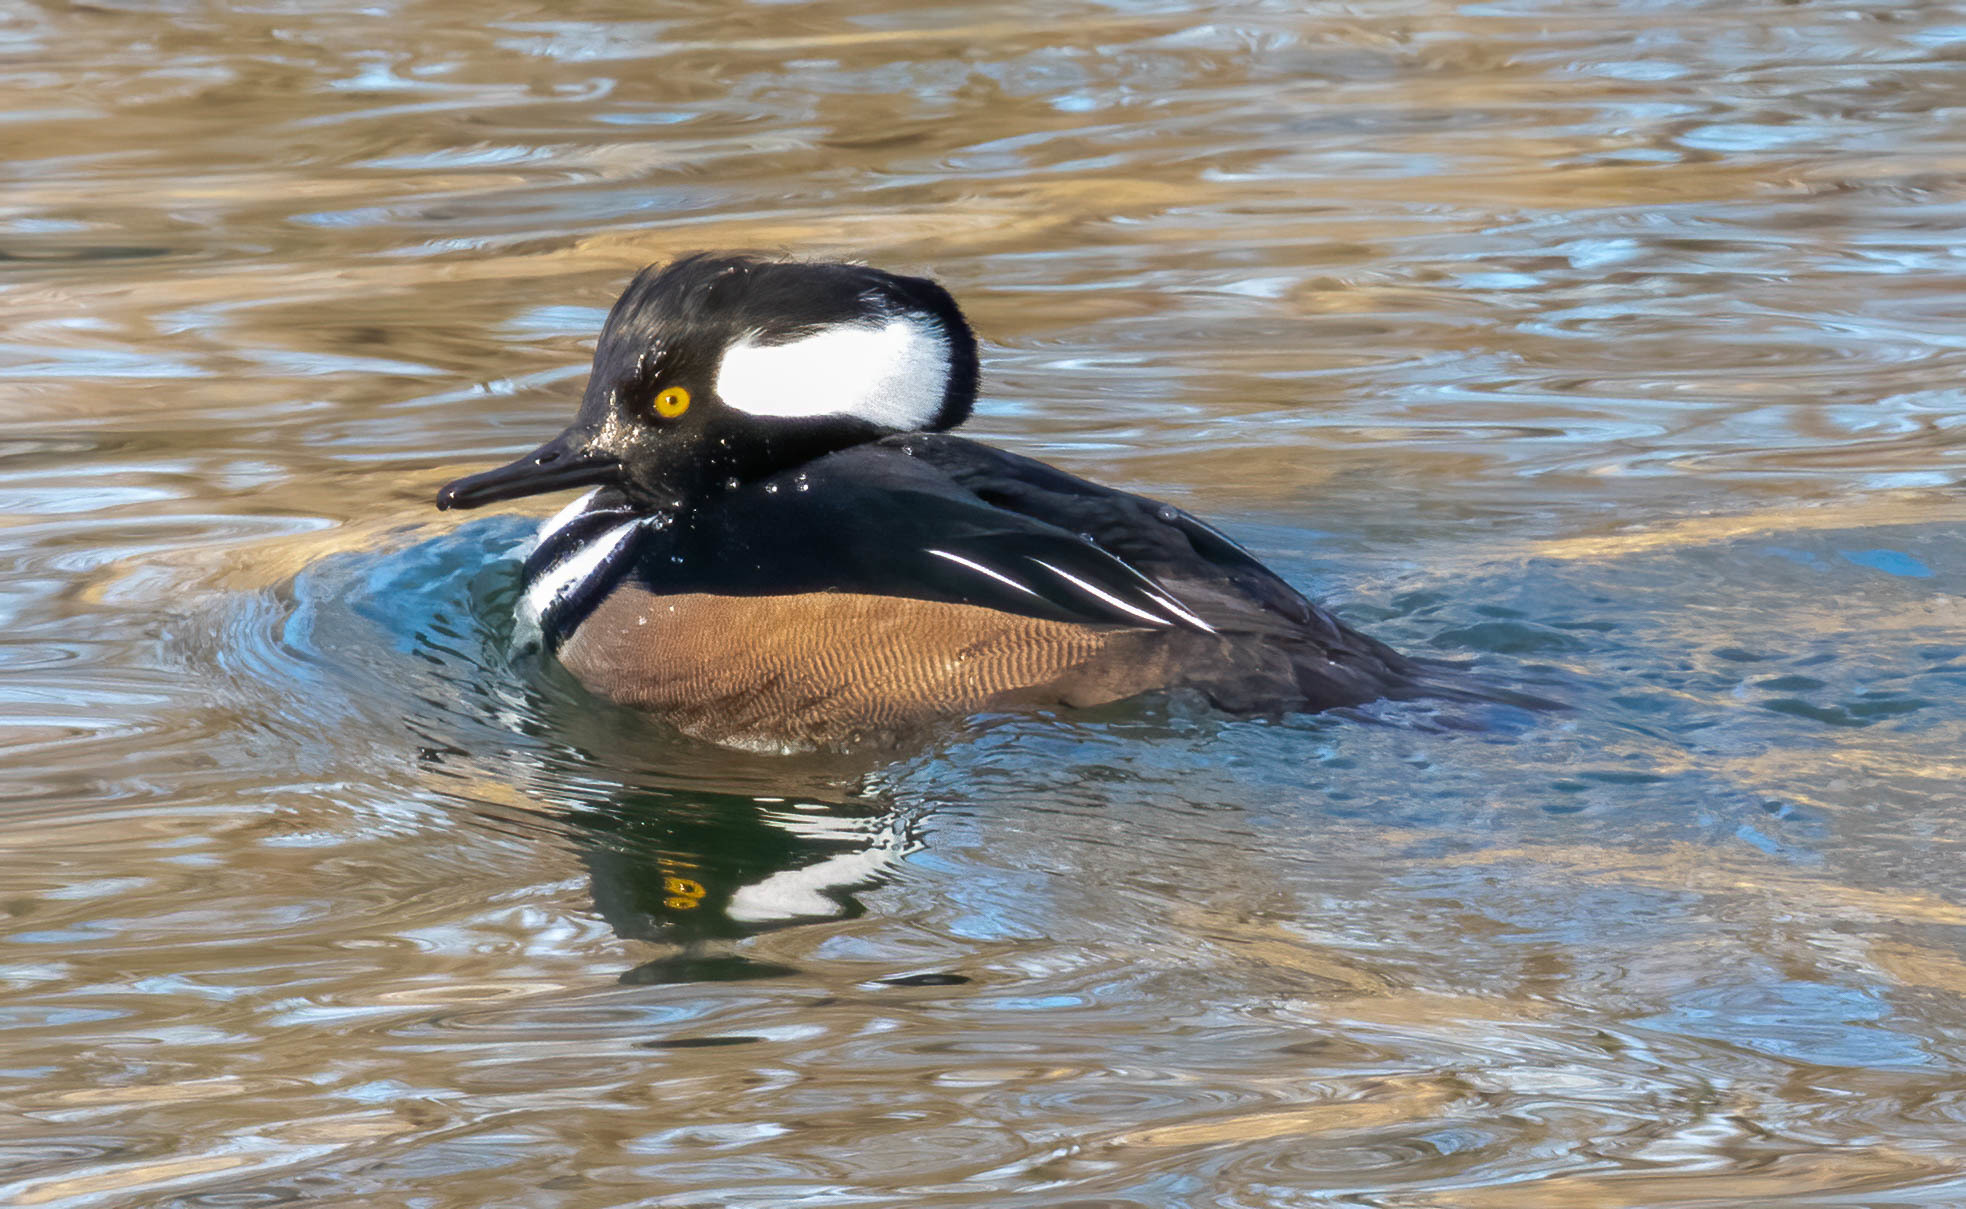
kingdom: Animalia
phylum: Chordata
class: Aves
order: Anseriformes
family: Anatidae
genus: Lophodytes
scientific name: Lophodytes cucullatus
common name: Hooded merganser
